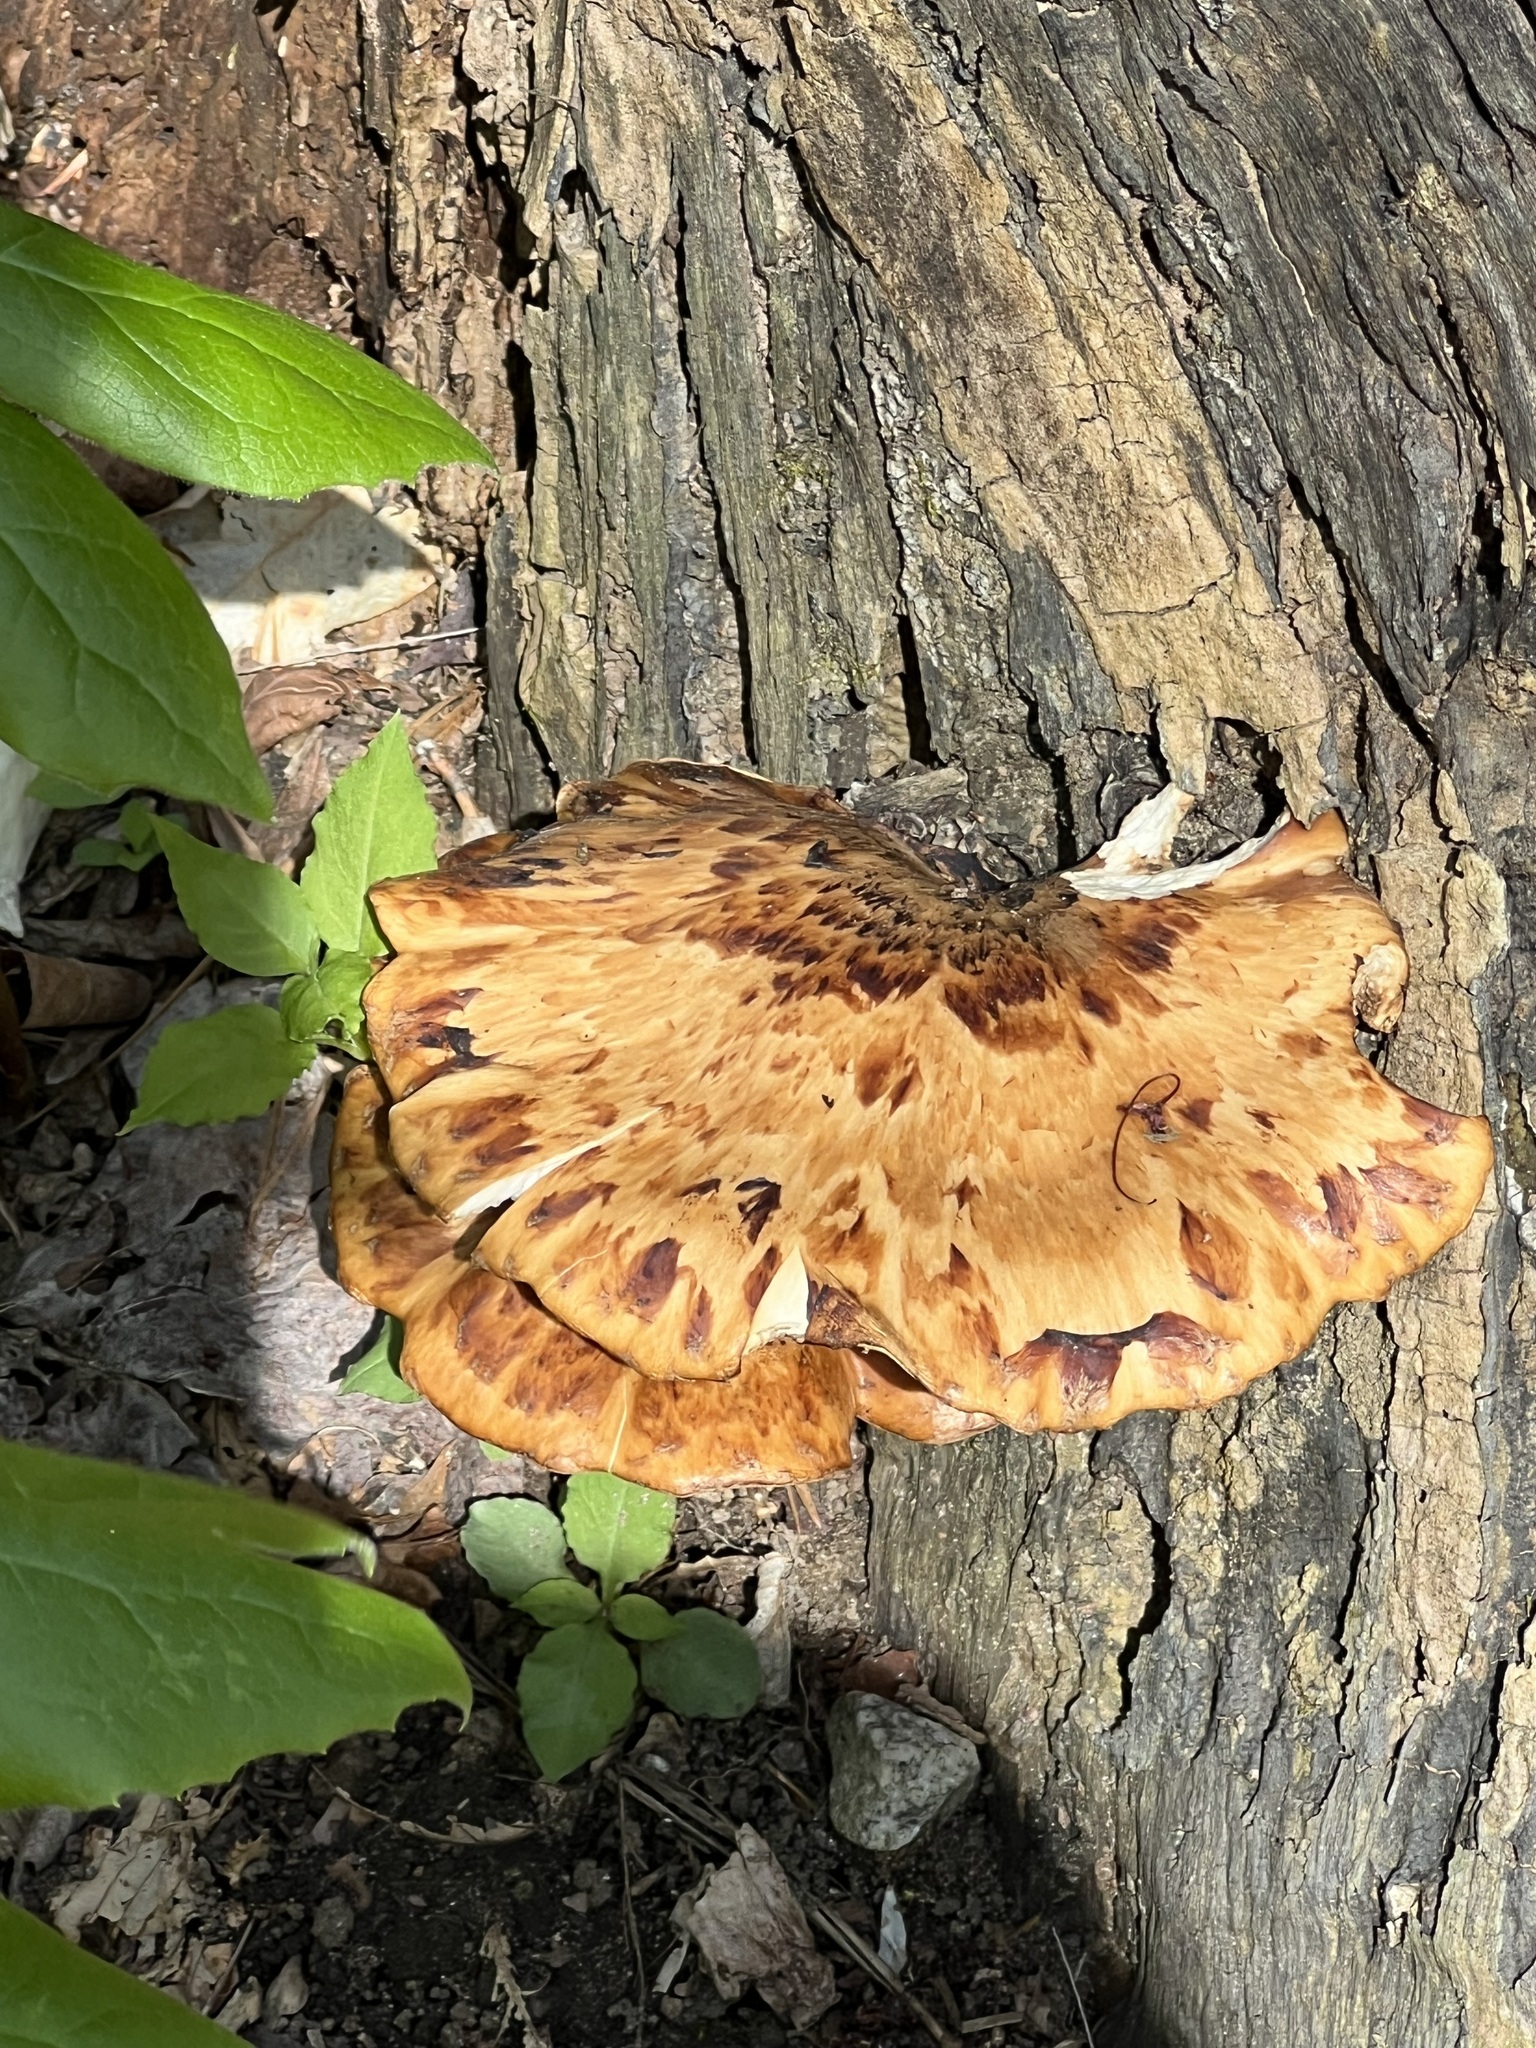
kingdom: Fungi
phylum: Basidiomycota
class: Agaricomycetes
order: Polyporales
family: Polyporaceae
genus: Cerioporus
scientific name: Cerioporus squamosus
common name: Dryad's saddle
